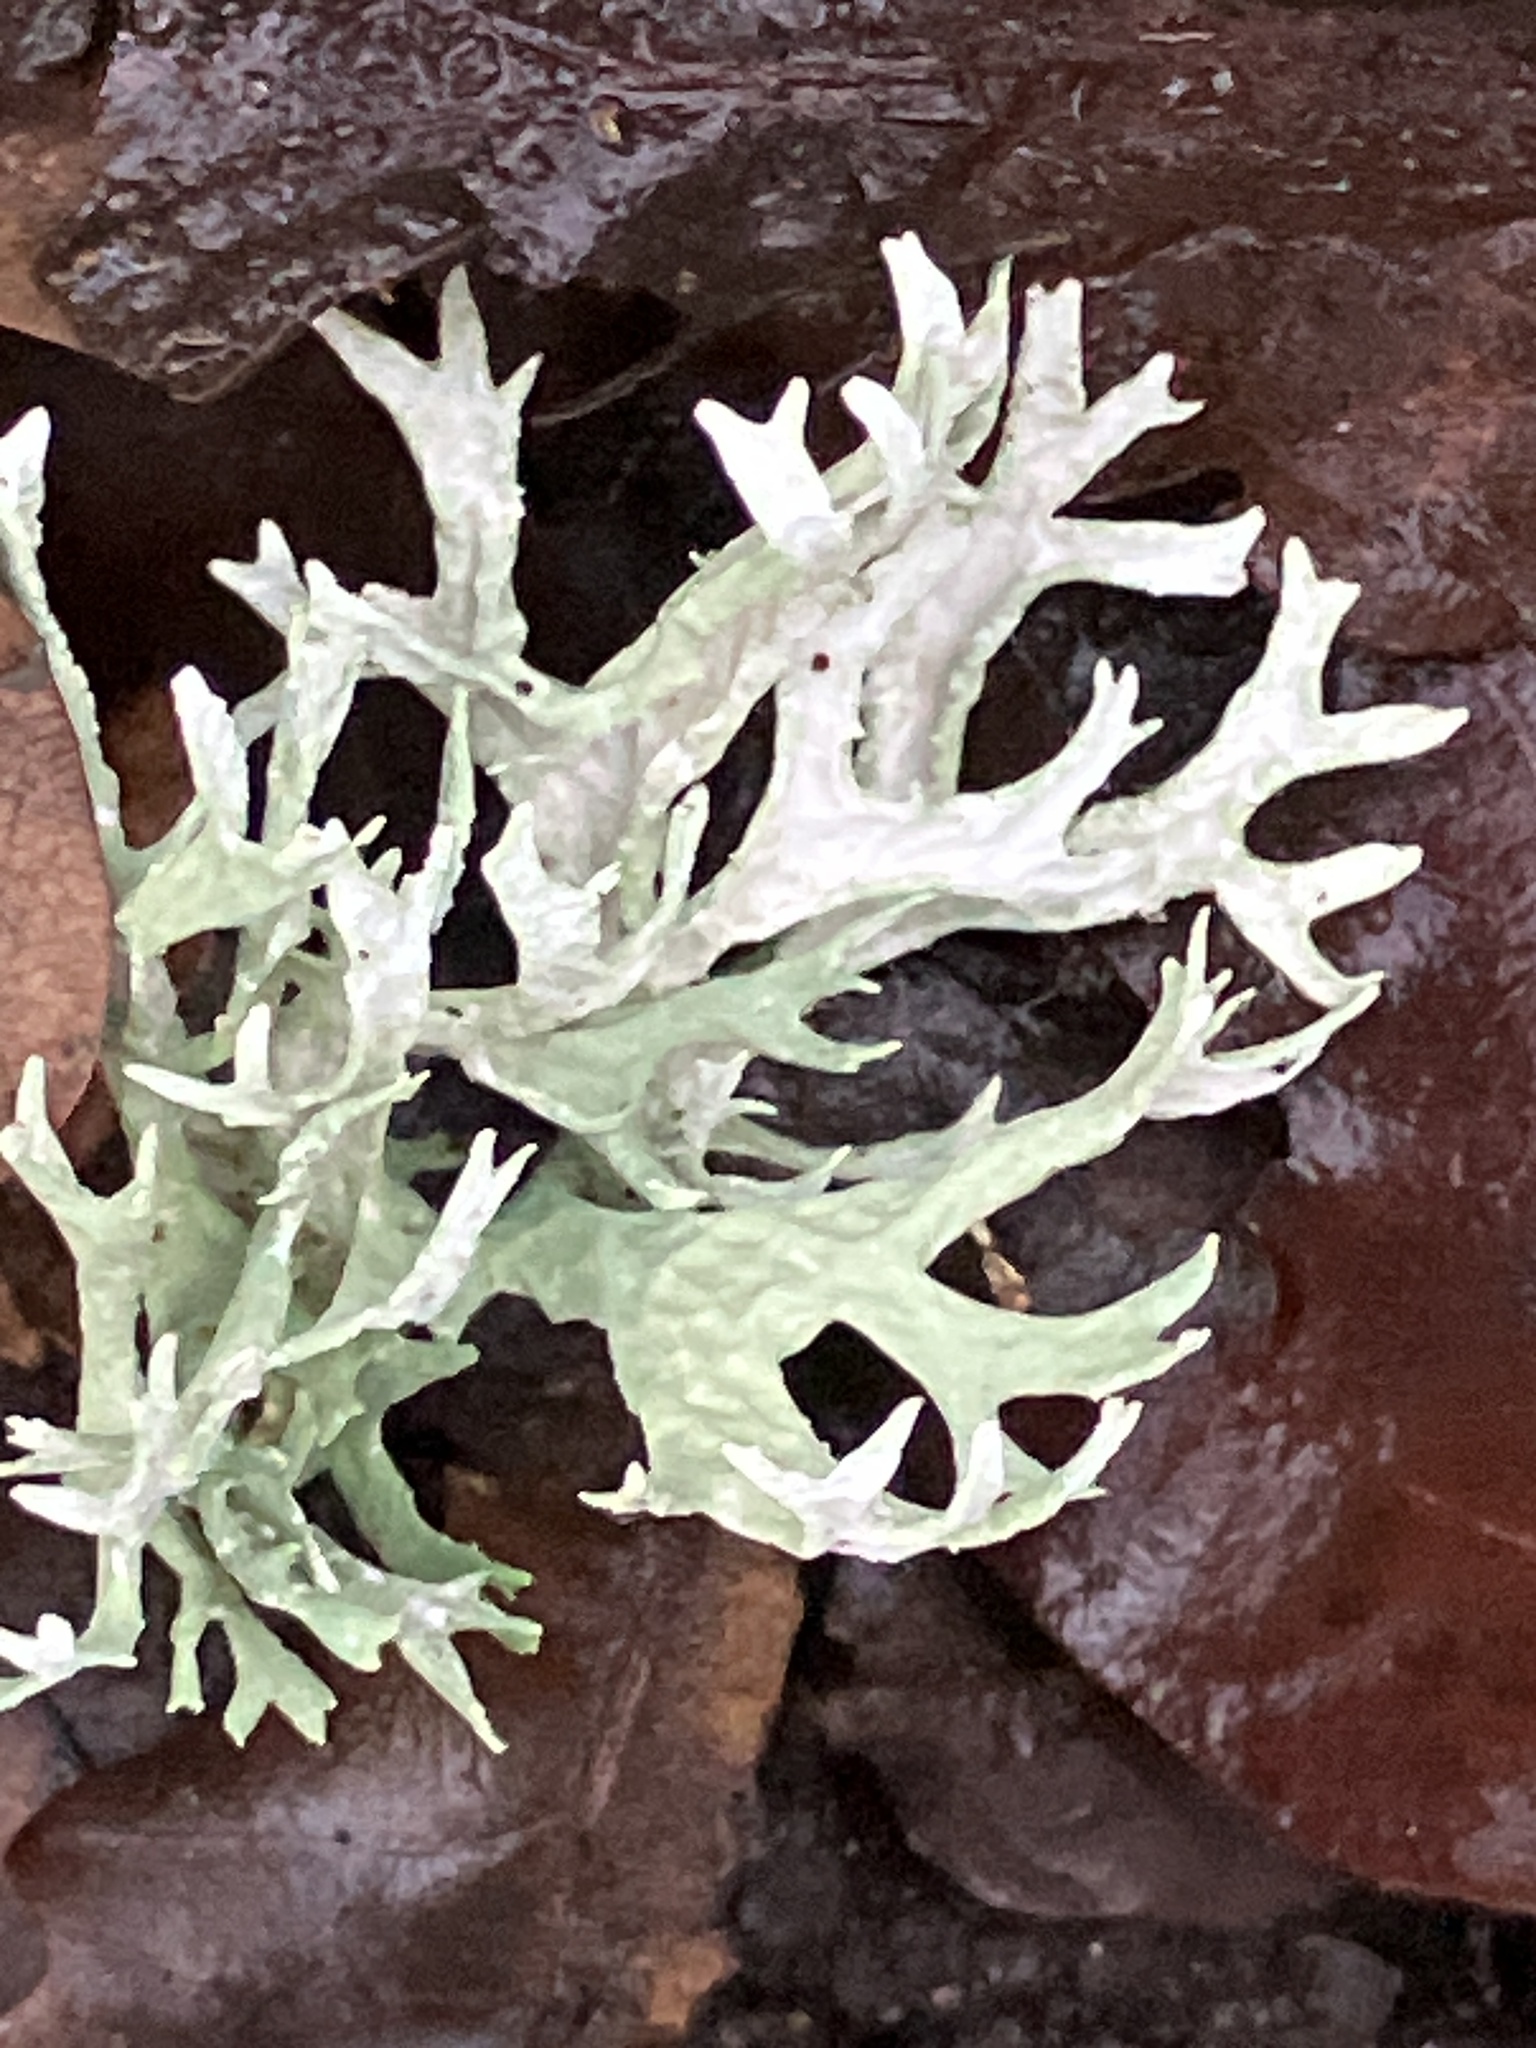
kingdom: Fungi
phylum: Ascomycota
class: Lecanoromycetes
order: Lecanorales
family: Parmeliaceae
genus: Evernia
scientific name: Evernia prunastri
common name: Oak moss
